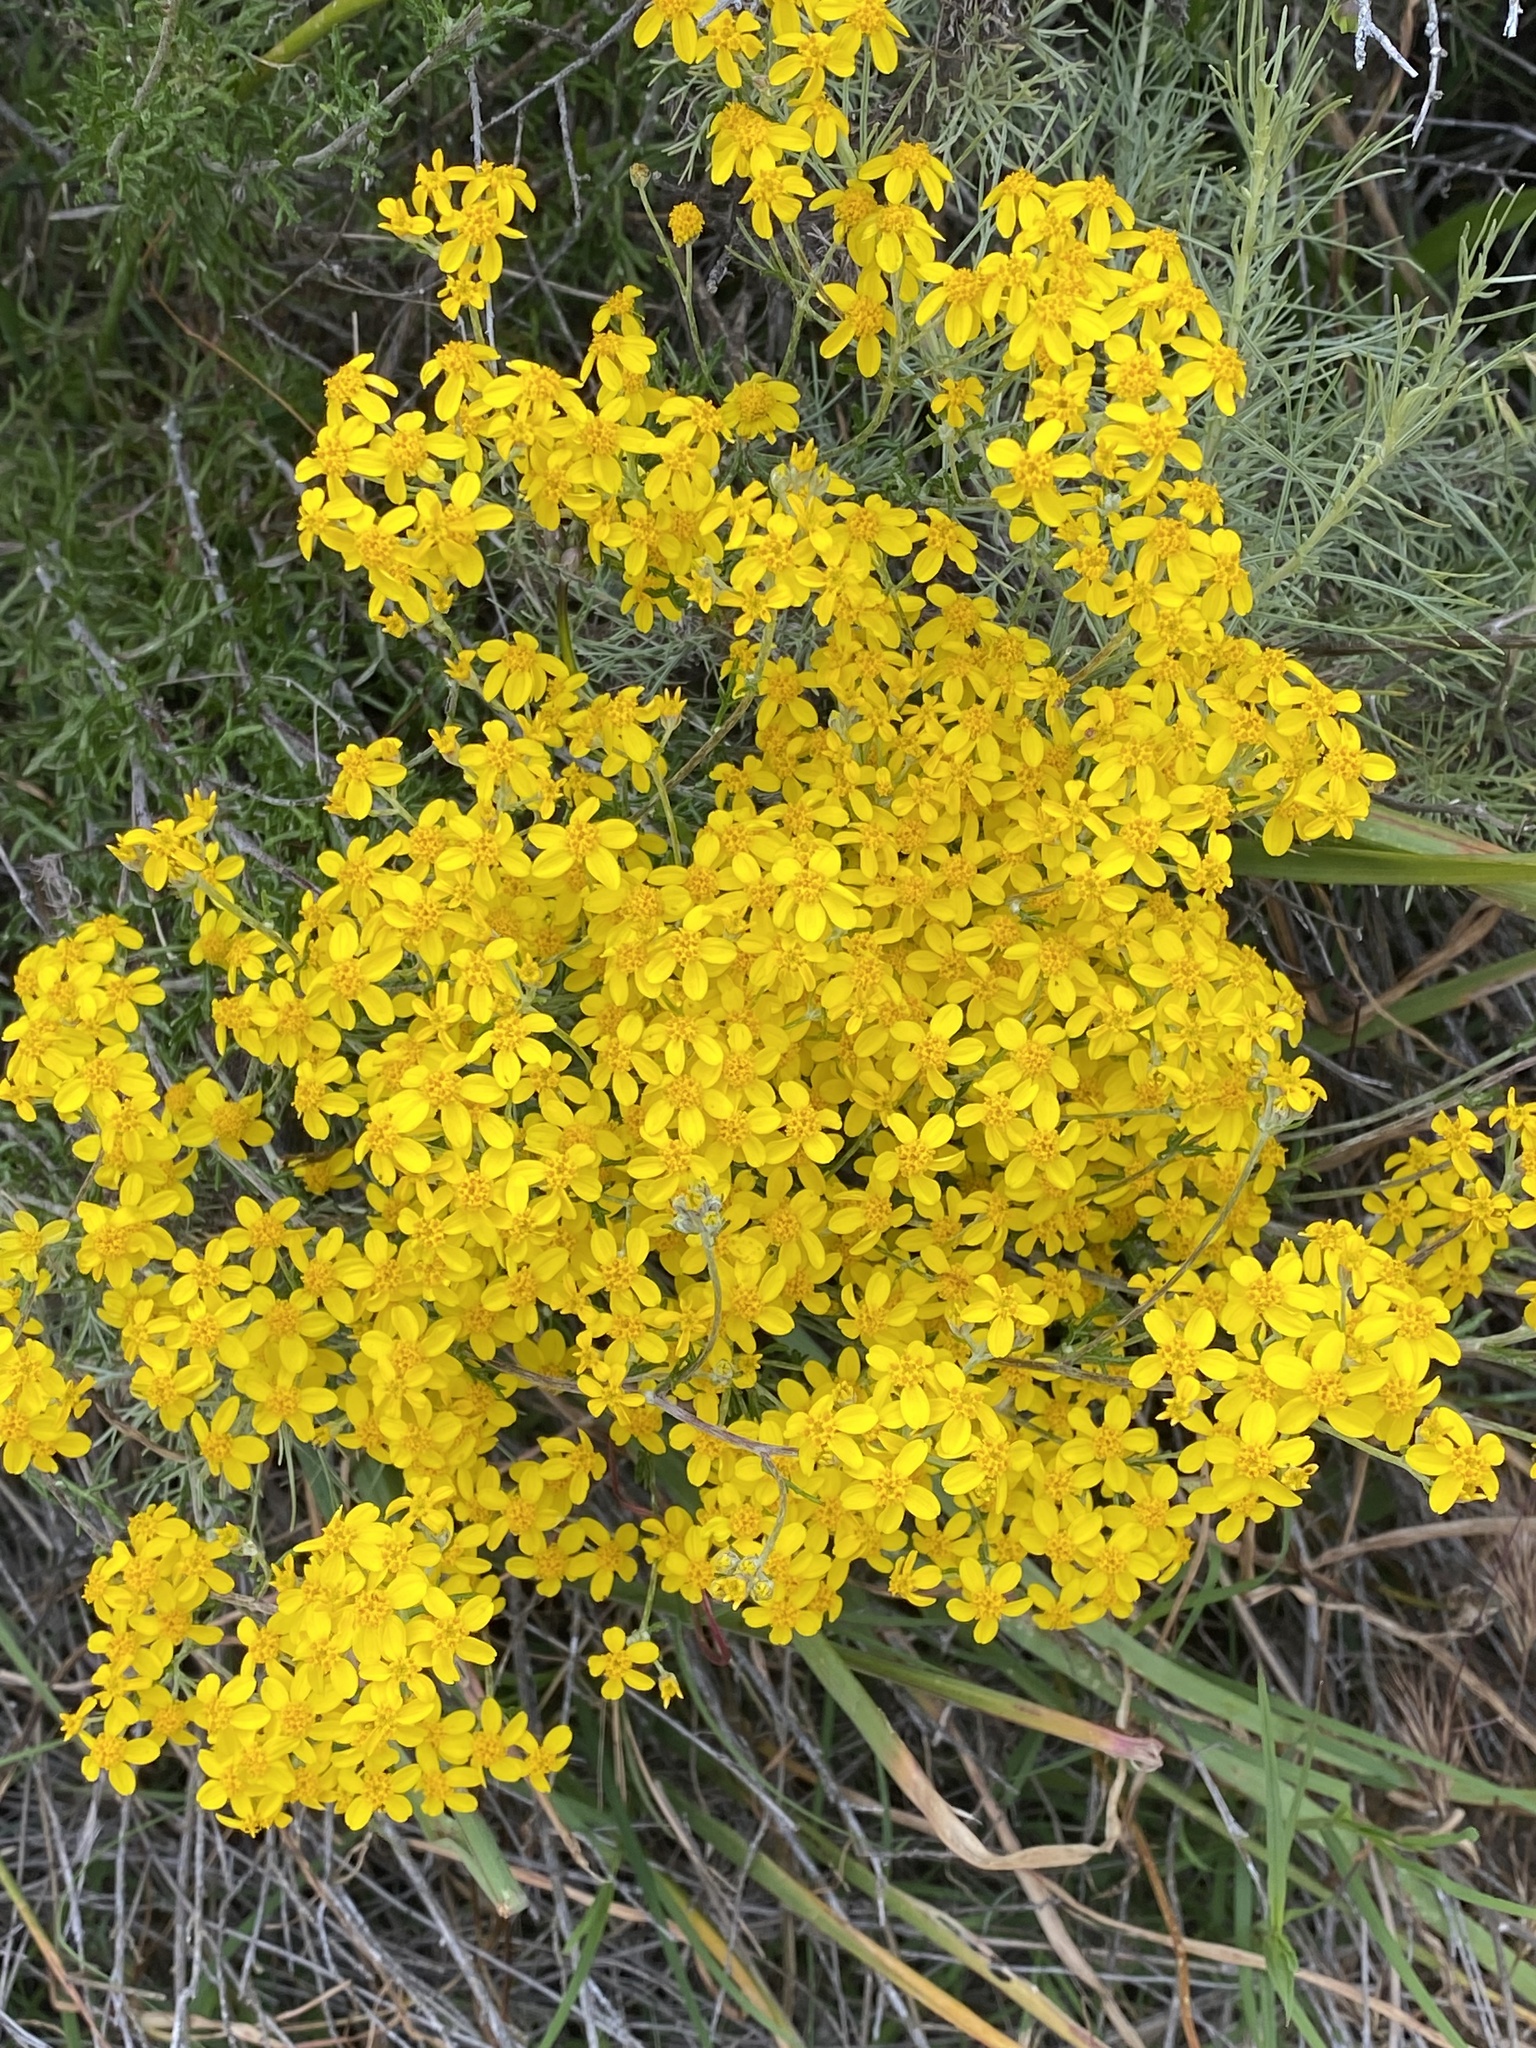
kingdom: Plantae
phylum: Tracheophyta
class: Magnoliopsida
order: Asterales
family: Asteraceae
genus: Eriophyllum
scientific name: Eriophyllum confertiflorum
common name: Golden-yarrow
